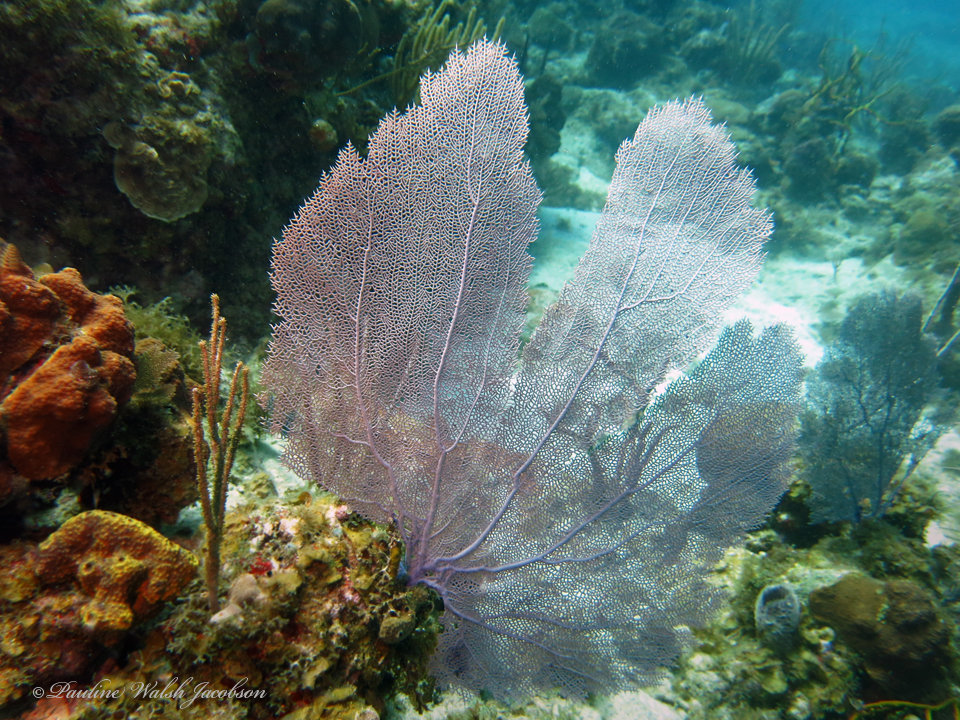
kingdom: Animalia
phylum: Cnidaria
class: Anthozoa
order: Malacalcyonacea
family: Gorgoniidae
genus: Gorgonia
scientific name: Gorgonia ventalina
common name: Common sea fan
